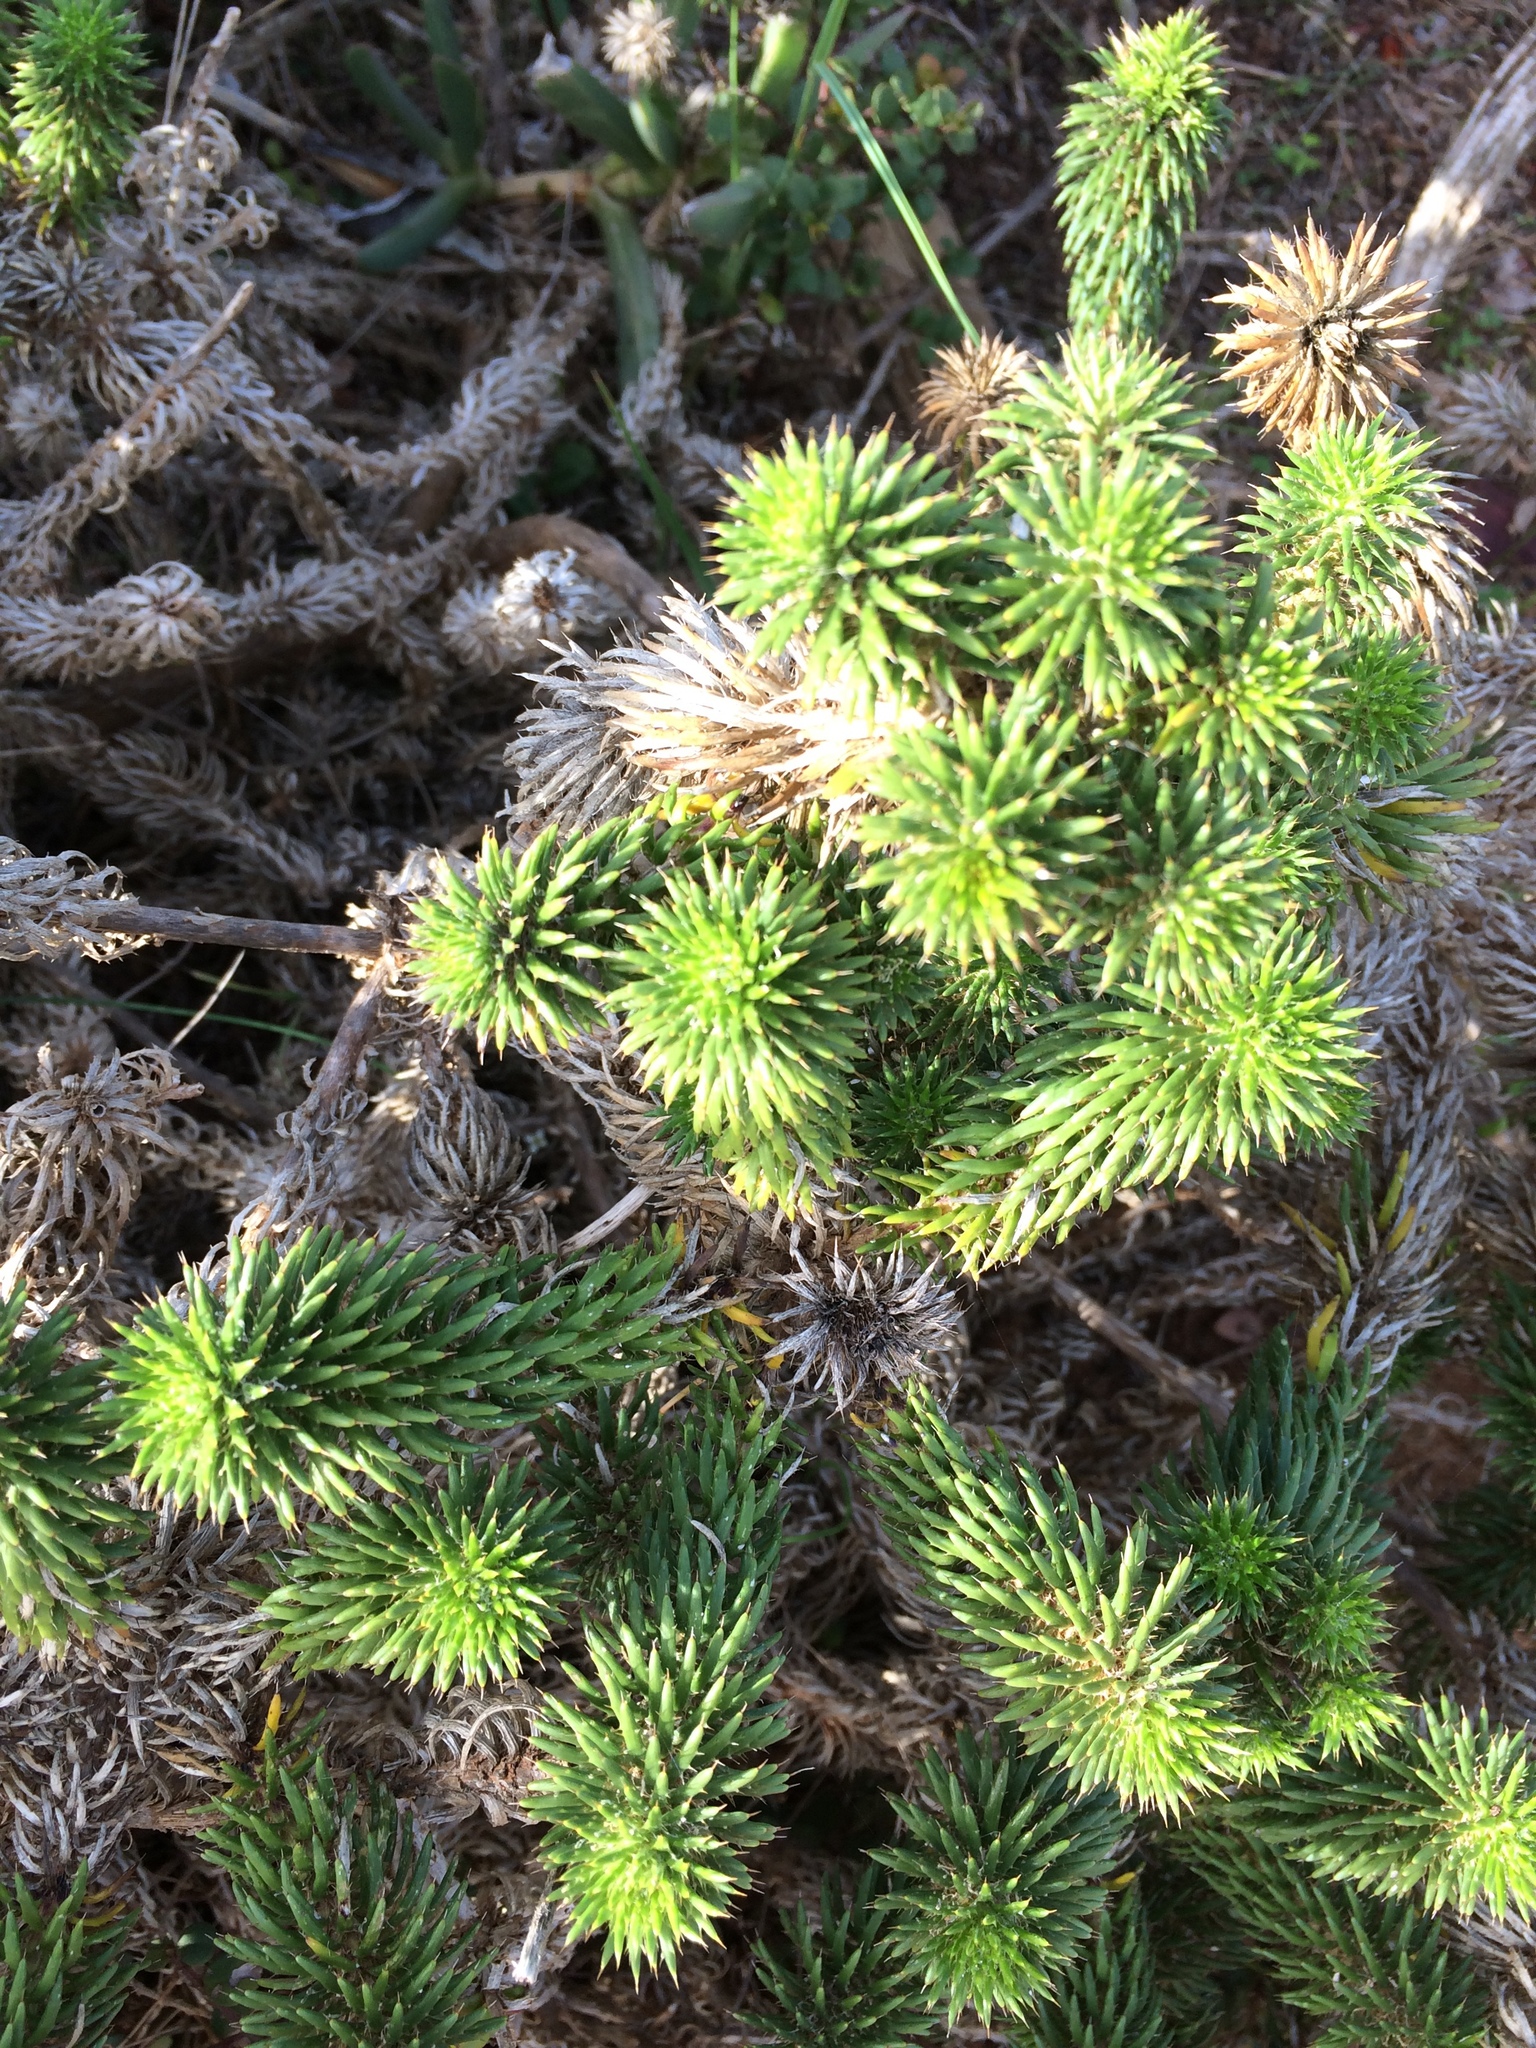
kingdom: Plantae
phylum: Tracheophyta
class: Magnoliopsida
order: Asterales
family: Asteraceae
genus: Cullumia
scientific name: Cullumia squarrosa
